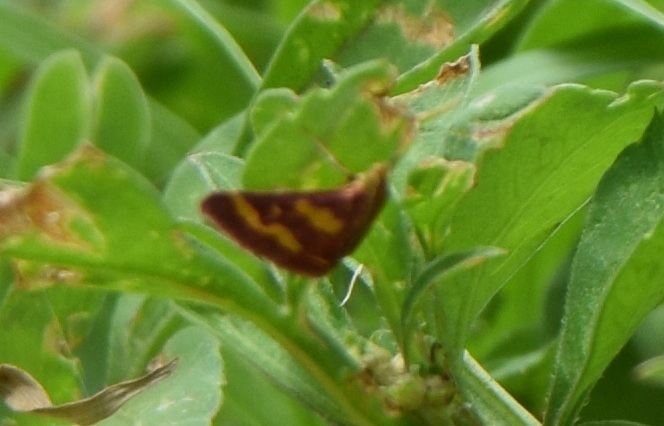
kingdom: Animalia
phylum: Arthropoda
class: Insecta
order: Lepidoptera
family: Crambidae
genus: Pyrausta
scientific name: Pyrausta tyralis
